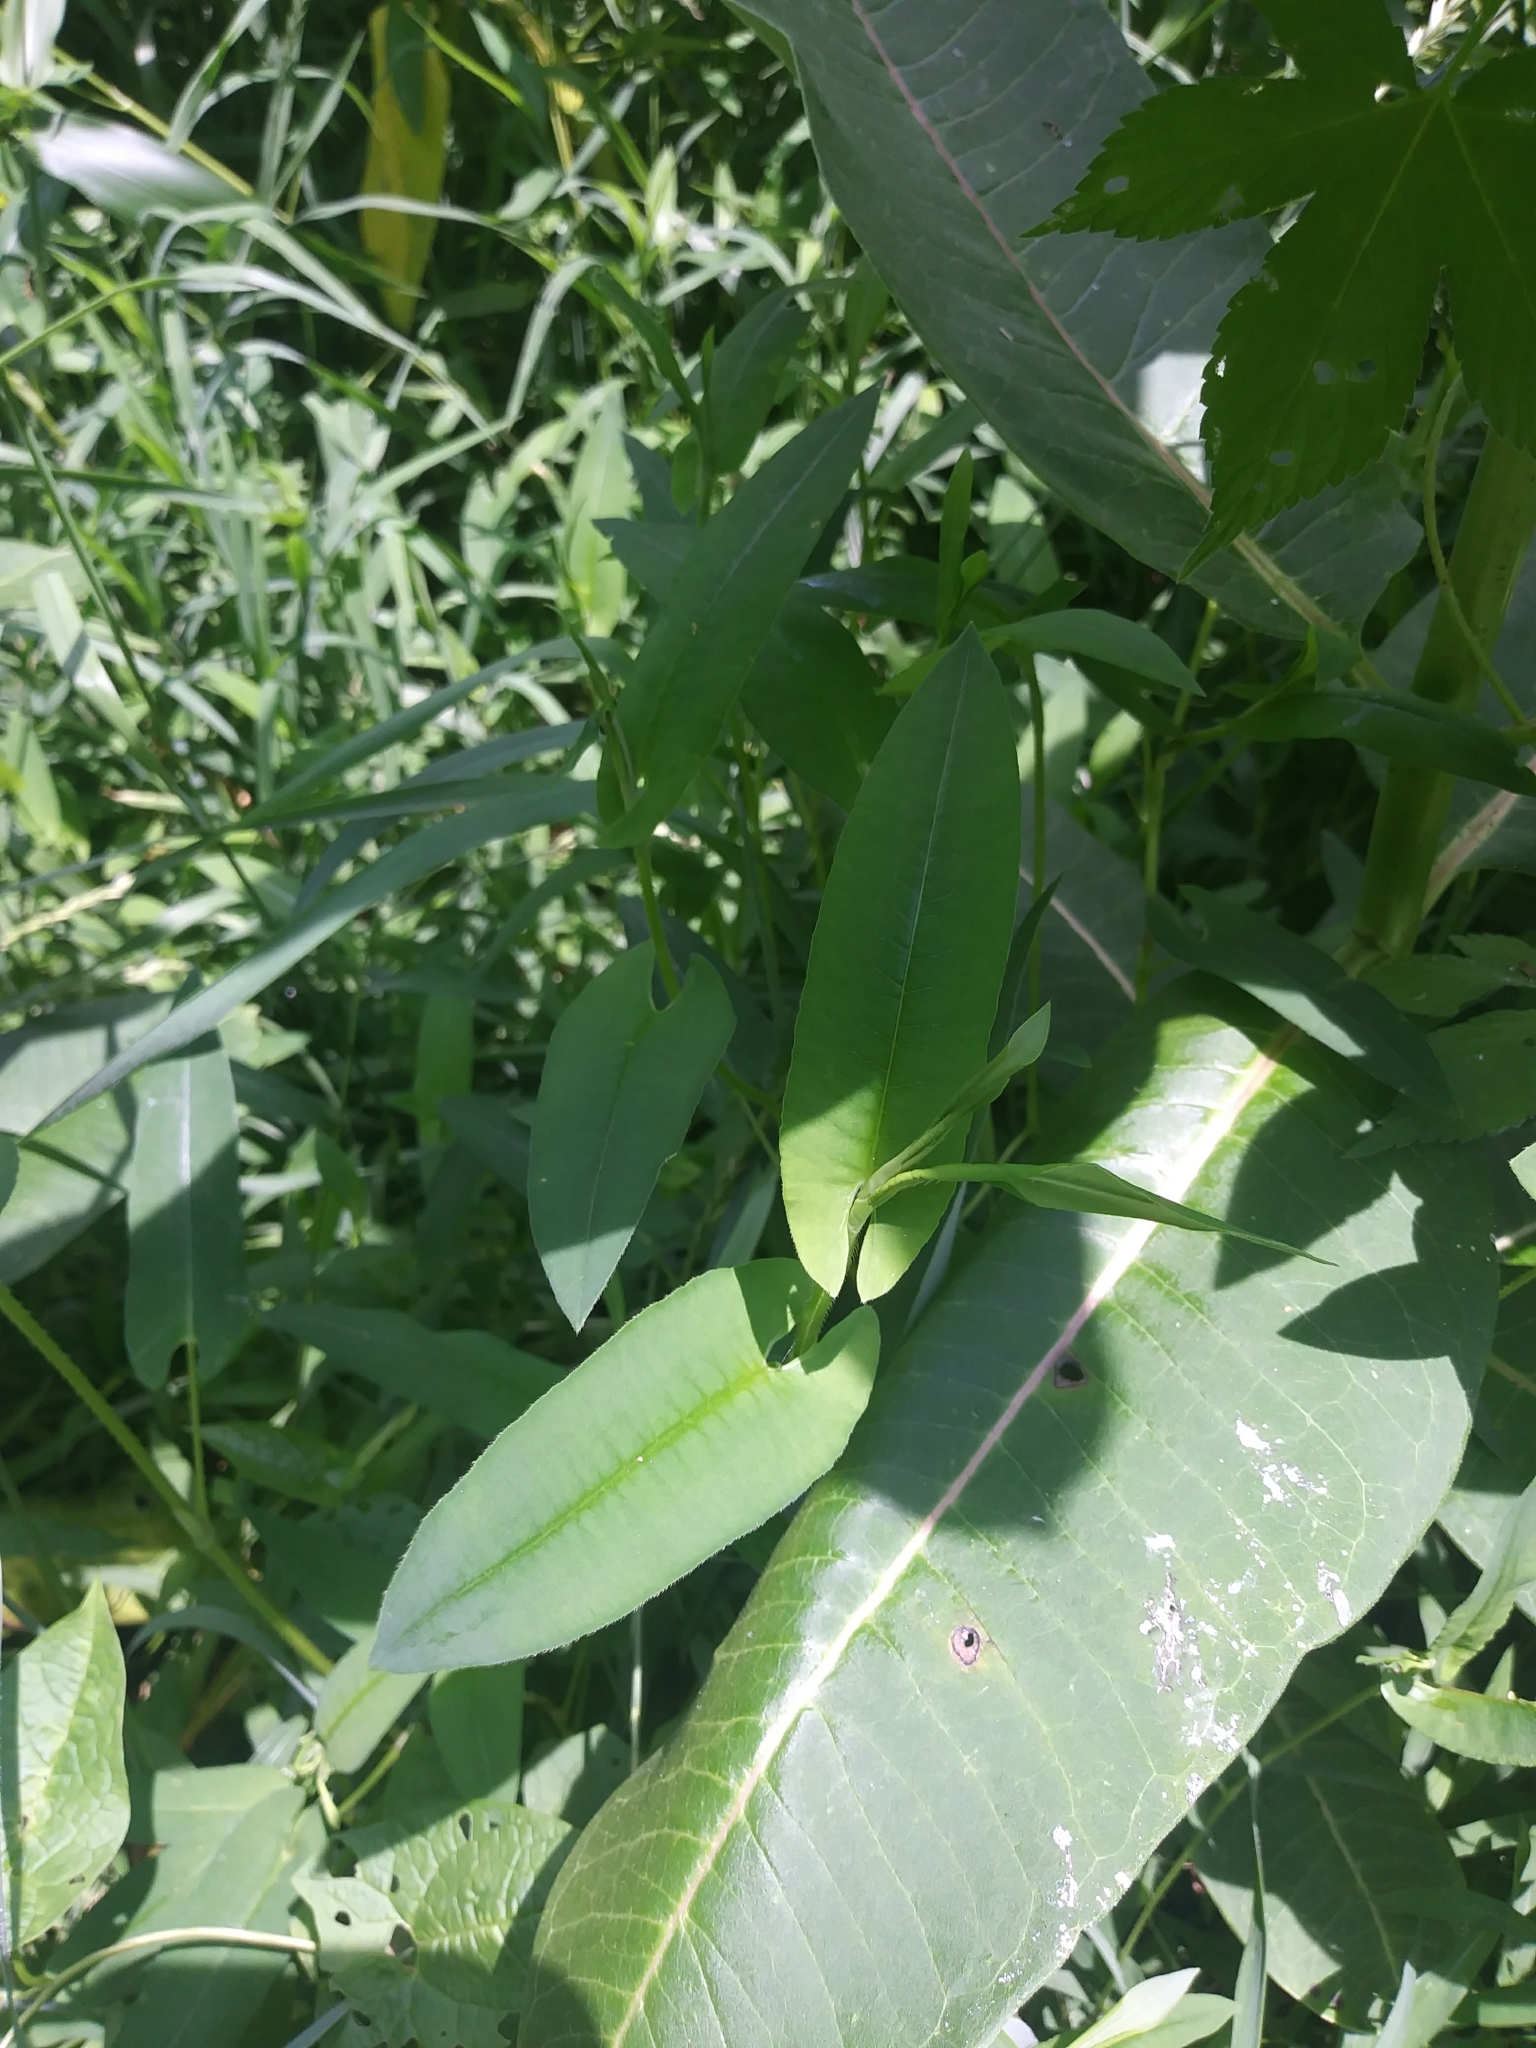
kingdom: Plantae
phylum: Tracheophyta
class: Magnoliopsida
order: Caryophyllales
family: Polygonaceae
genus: Persicaria
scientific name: Persicaria sagittata
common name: American tearthumb
